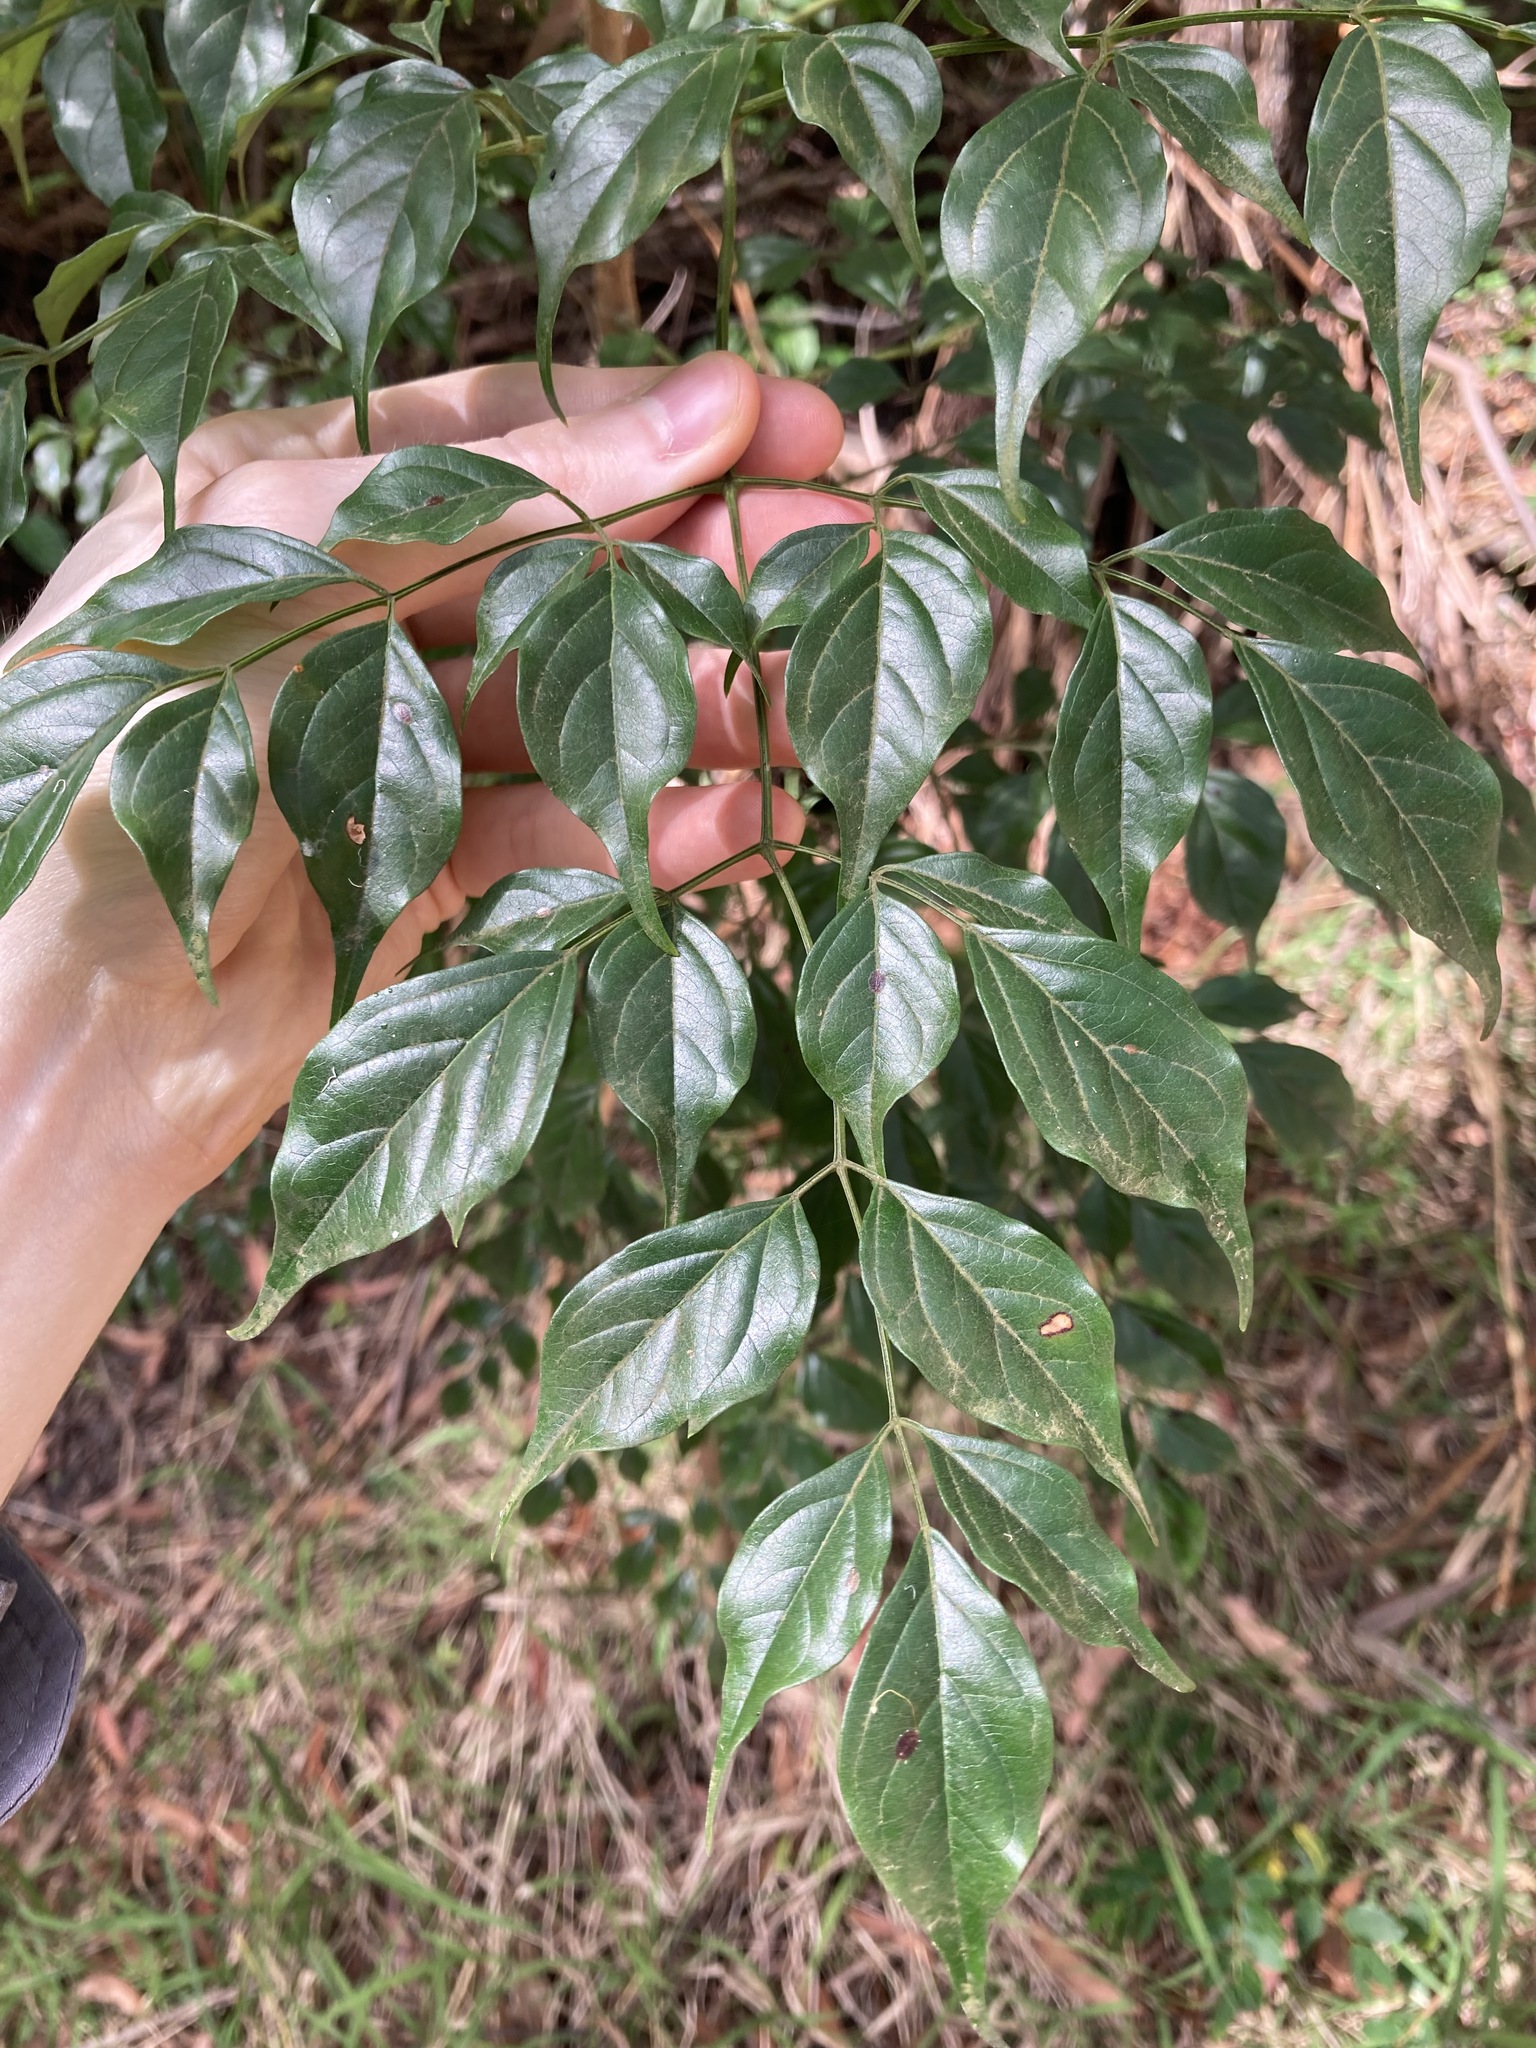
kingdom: Plantae
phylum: Tracheophyta
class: Magnoliopsida
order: Lamiales
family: Bignoniaceae
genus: Radermachera
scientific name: Radermachera sinica
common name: China doll plant
